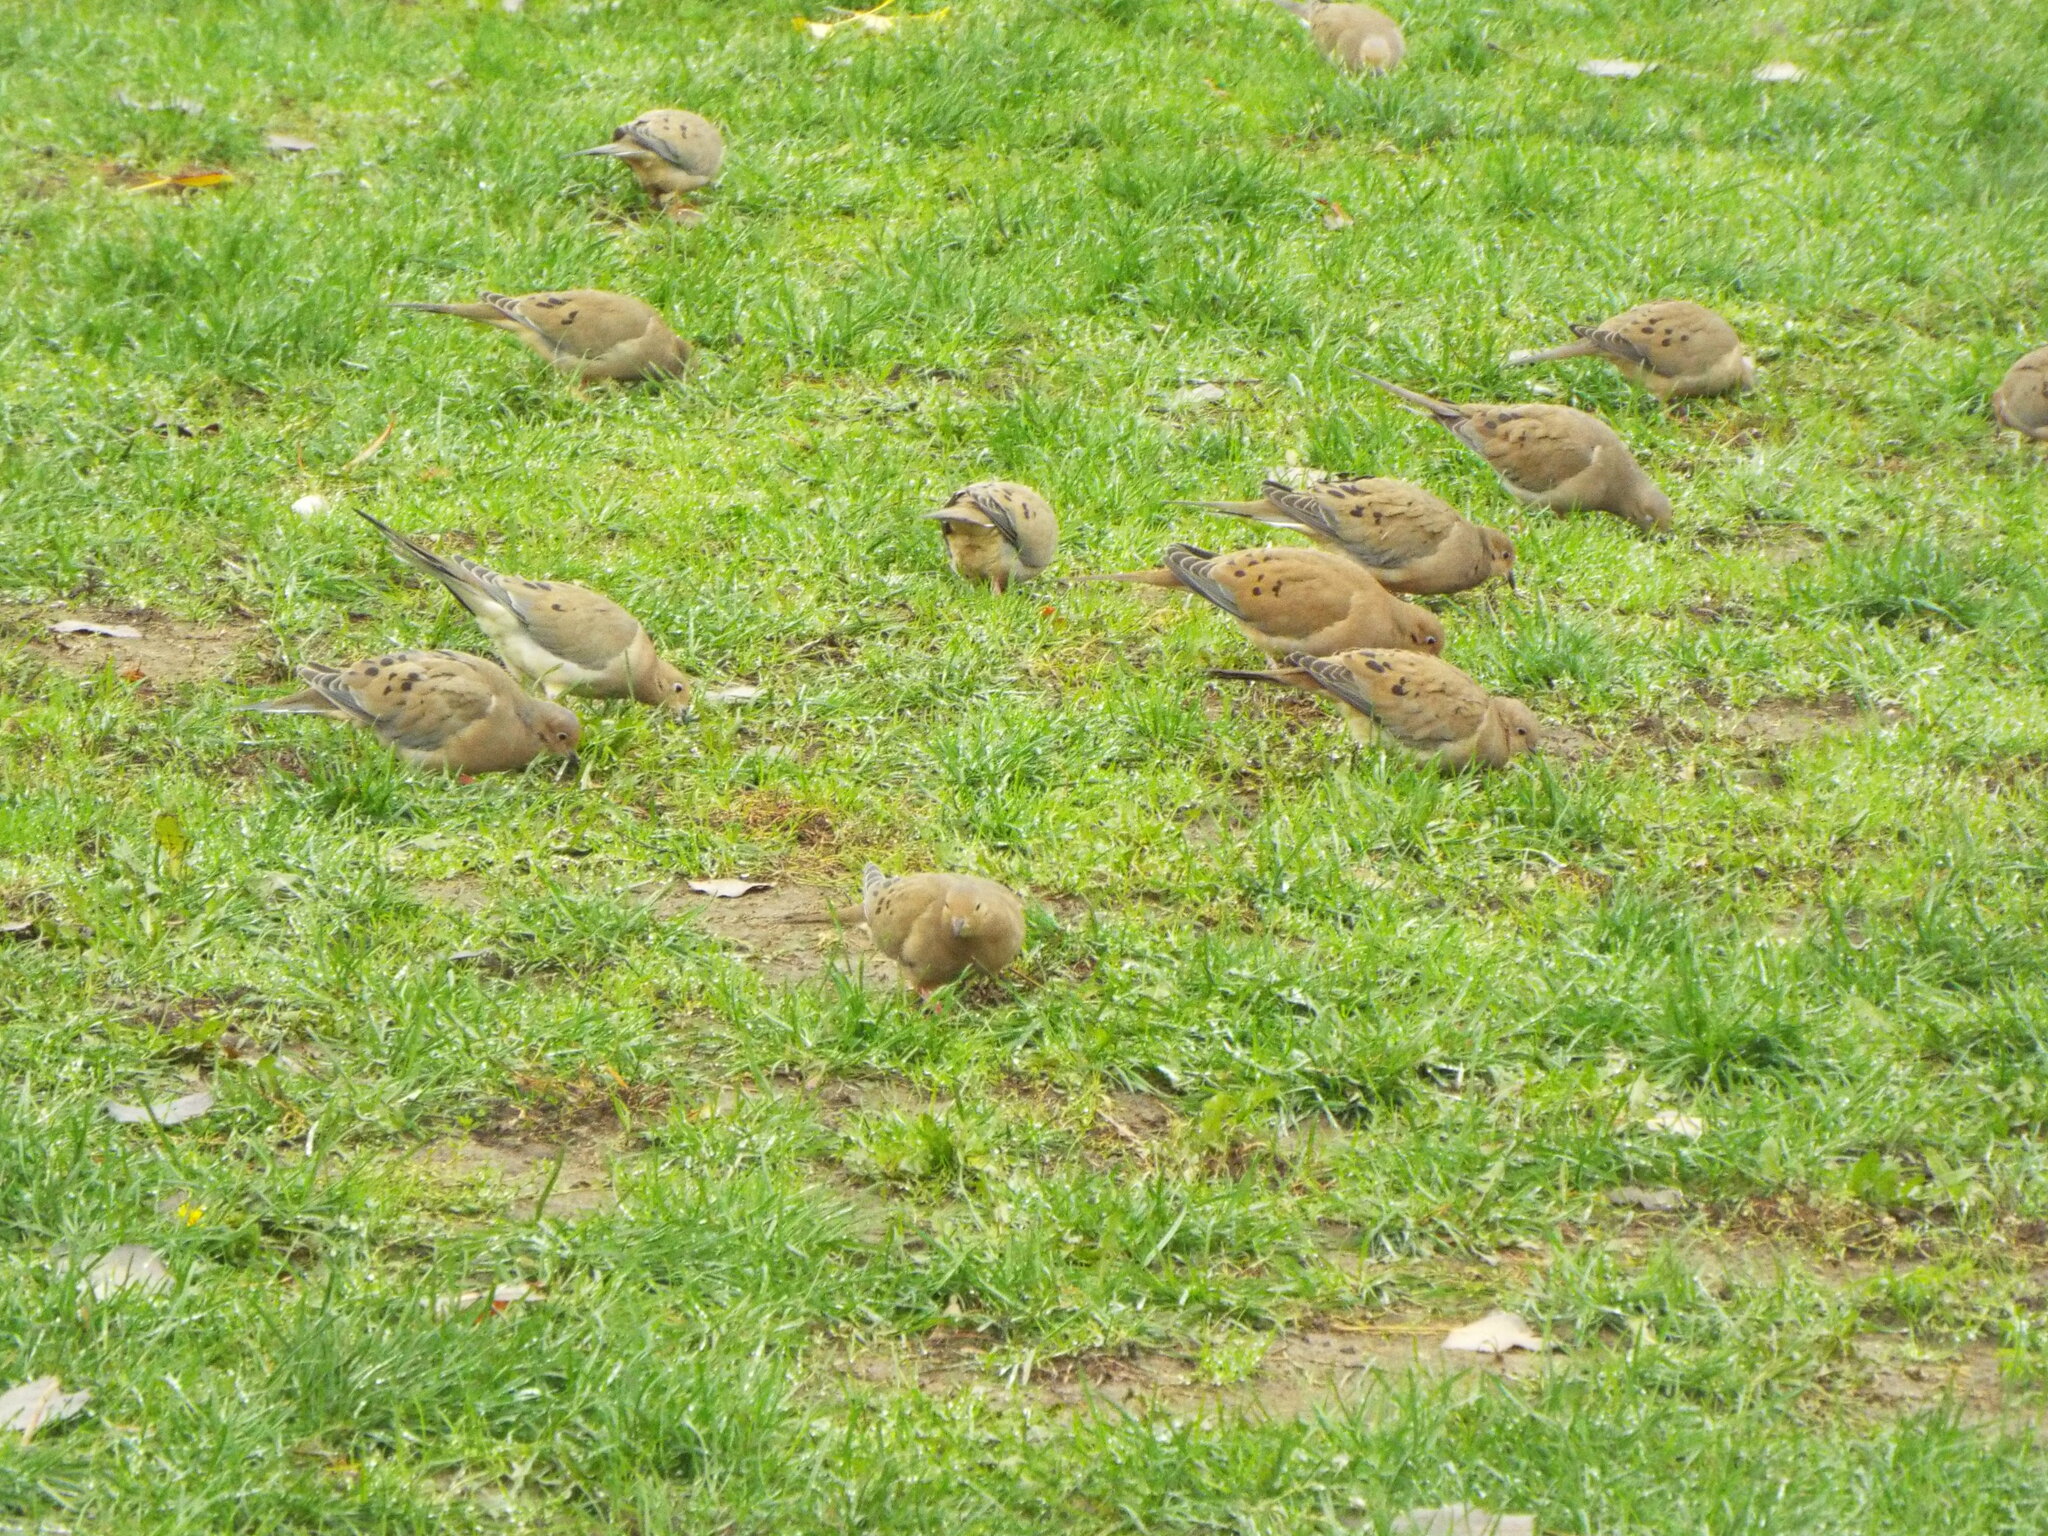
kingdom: Animalia
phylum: Chordata
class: Aves
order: Columbiformes
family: Columbidae
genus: Zenaida
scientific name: Zenaida macroura
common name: Mourning dove
